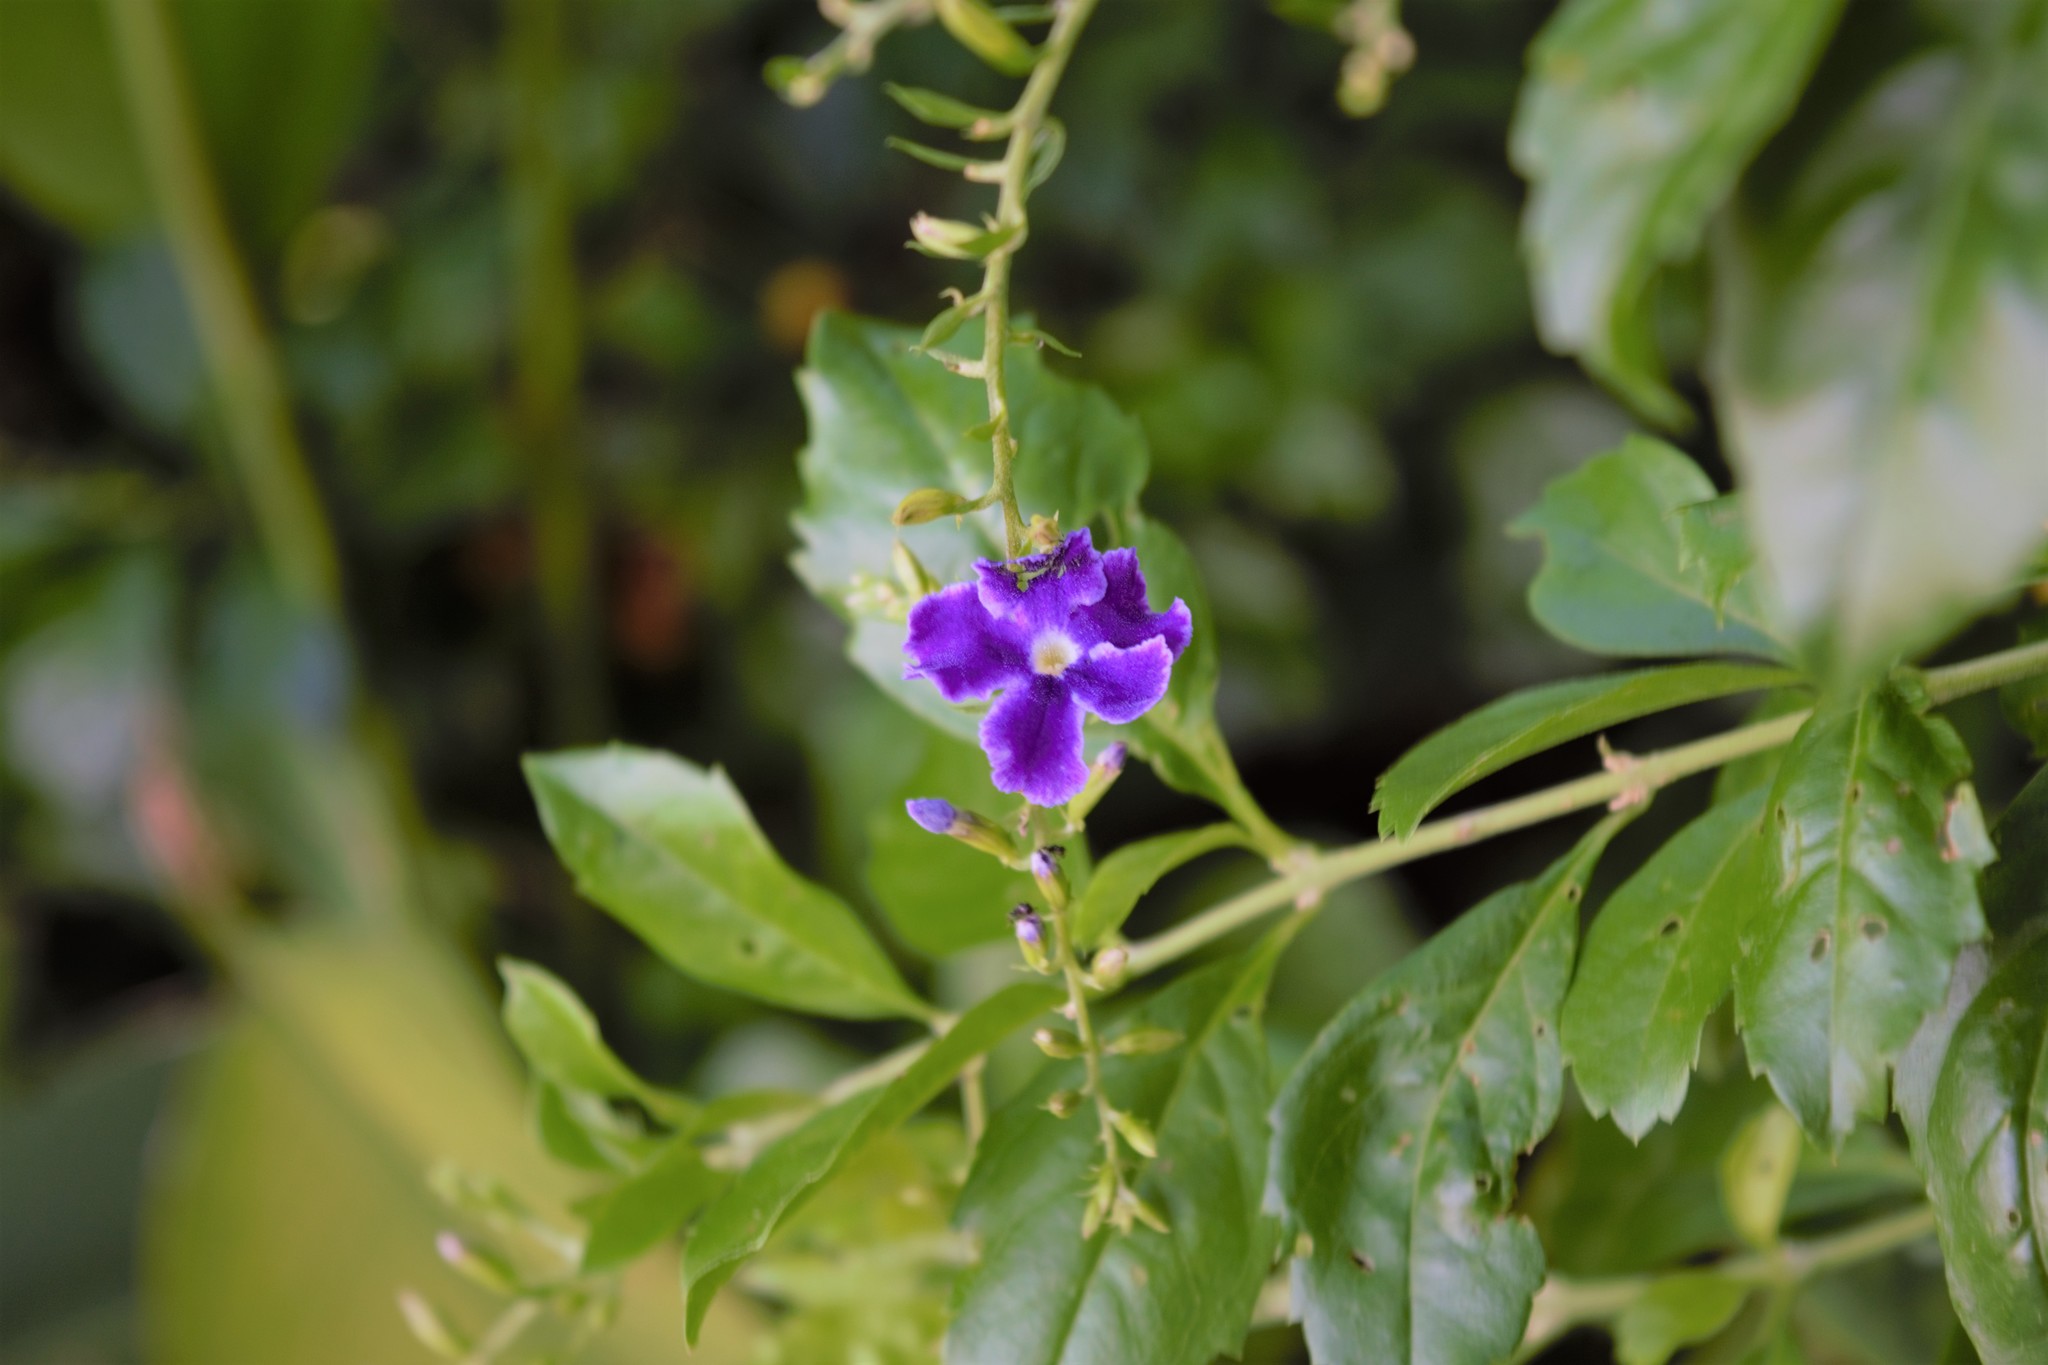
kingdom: Plantae
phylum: Tracheophyta
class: Magnoliopsida
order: Lamiales
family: Verbenaceae
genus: Duranta
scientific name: Duranta erecta
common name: Golden dewdrops
